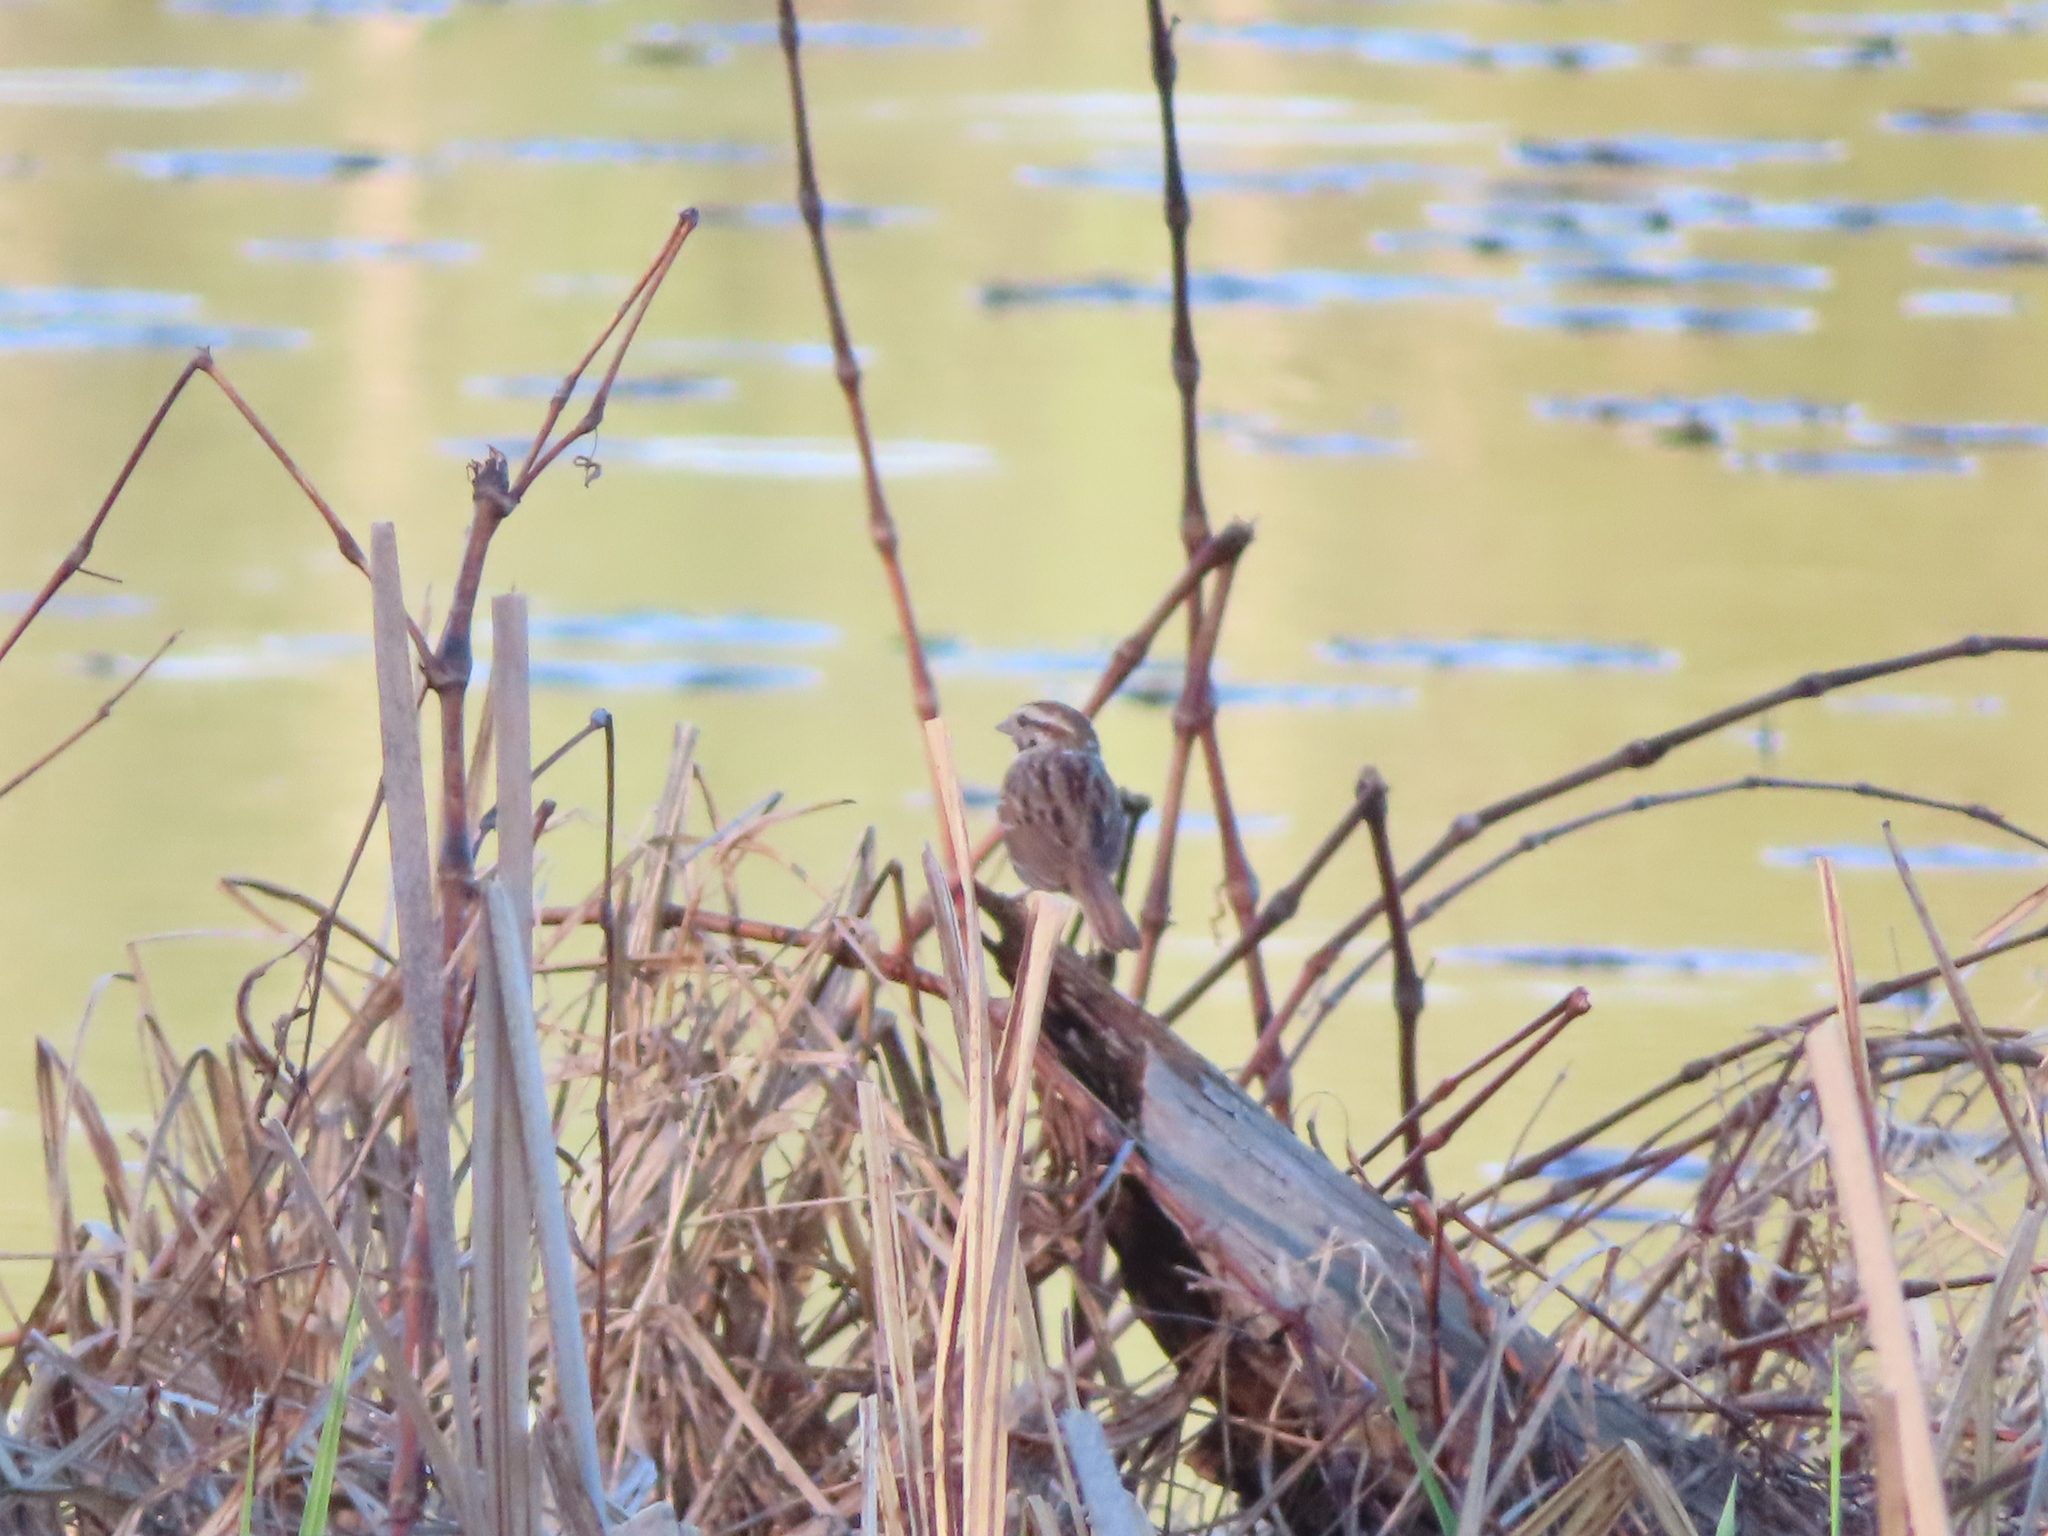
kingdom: Animalia
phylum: Chordata
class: Aves
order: Passeriformes
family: Passerellidae
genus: Melospiza
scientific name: Melospiza melodia
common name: Song sparrow
